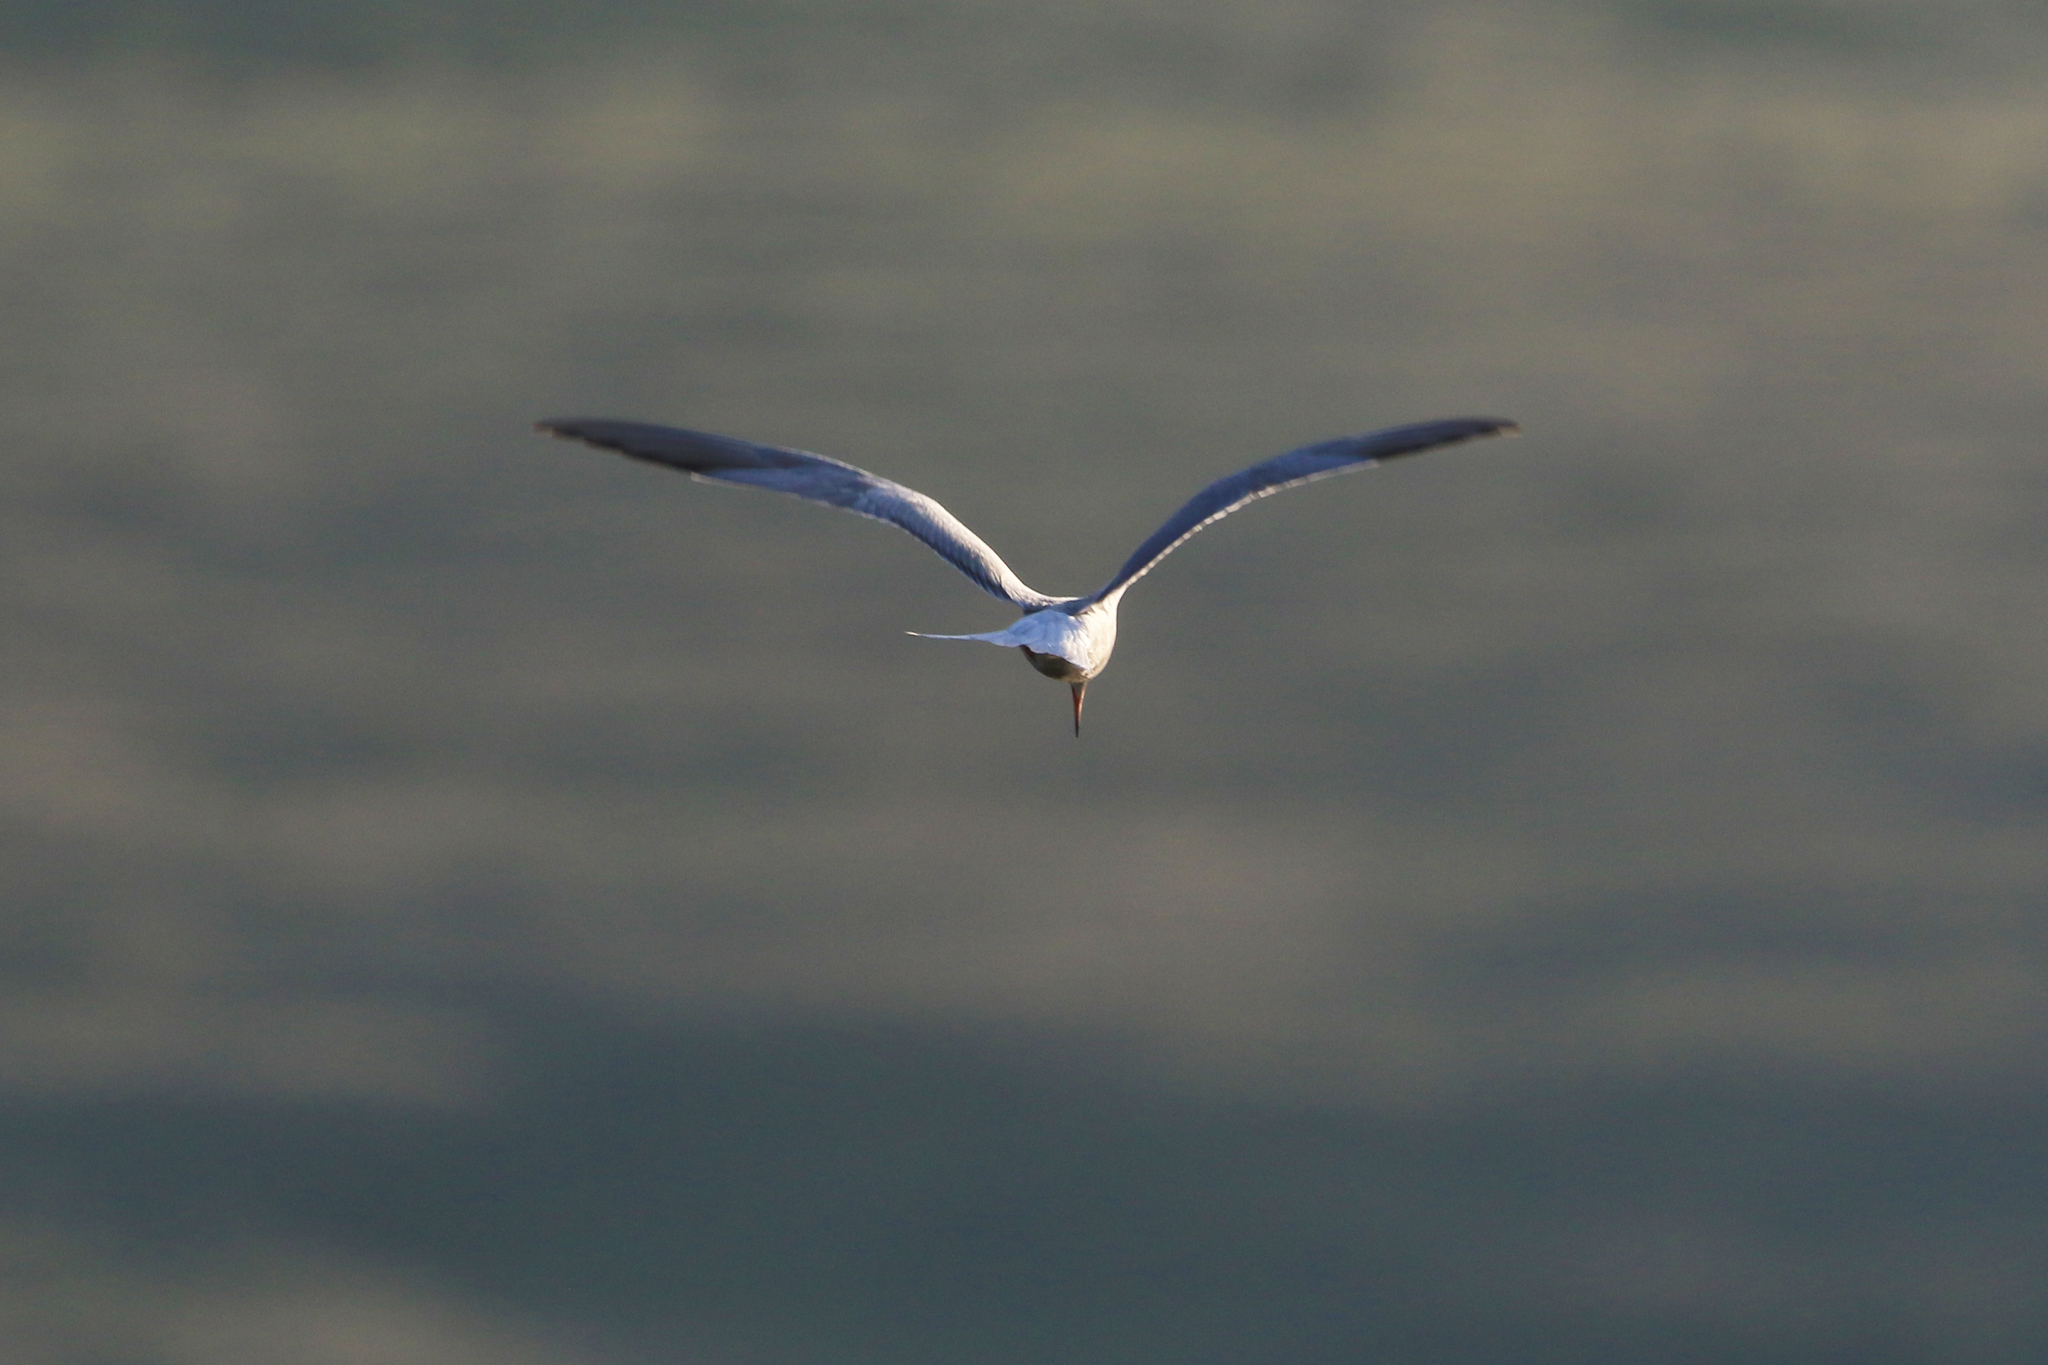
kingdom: Animalia
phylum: Chordata
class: Aves
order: Charadriiformes
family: Laridae
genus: Sterna
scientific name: Sterna hirundo
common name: Common tern
